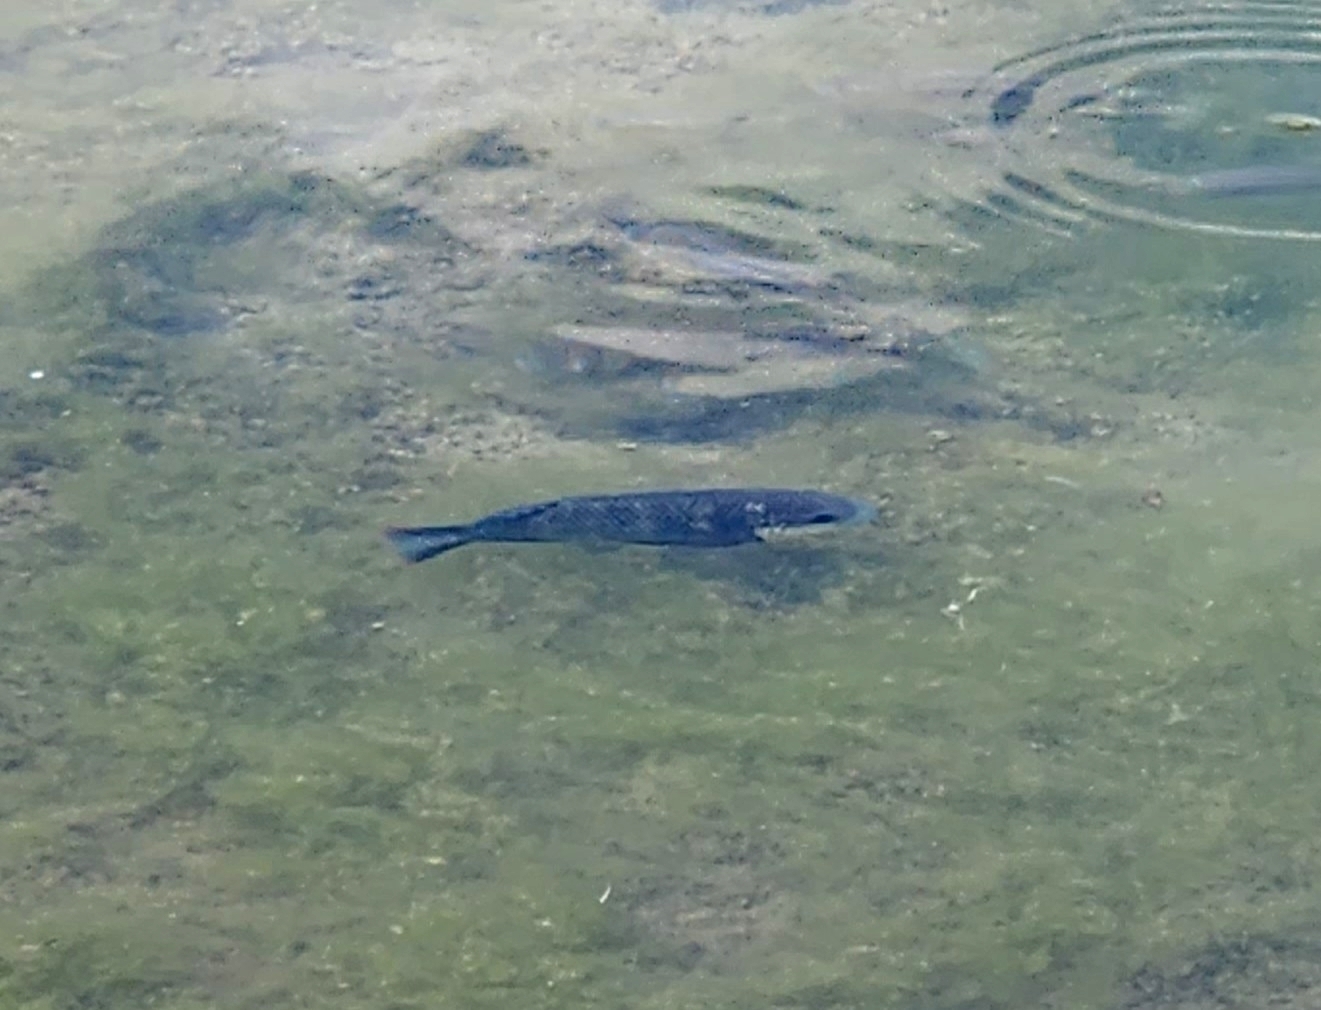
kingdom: Animalia
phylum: Chordata
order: Perciformes
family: Cichlidae
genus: Oreochromis
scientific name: Oreochromis mossambicus
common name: Mozambique tilapia
